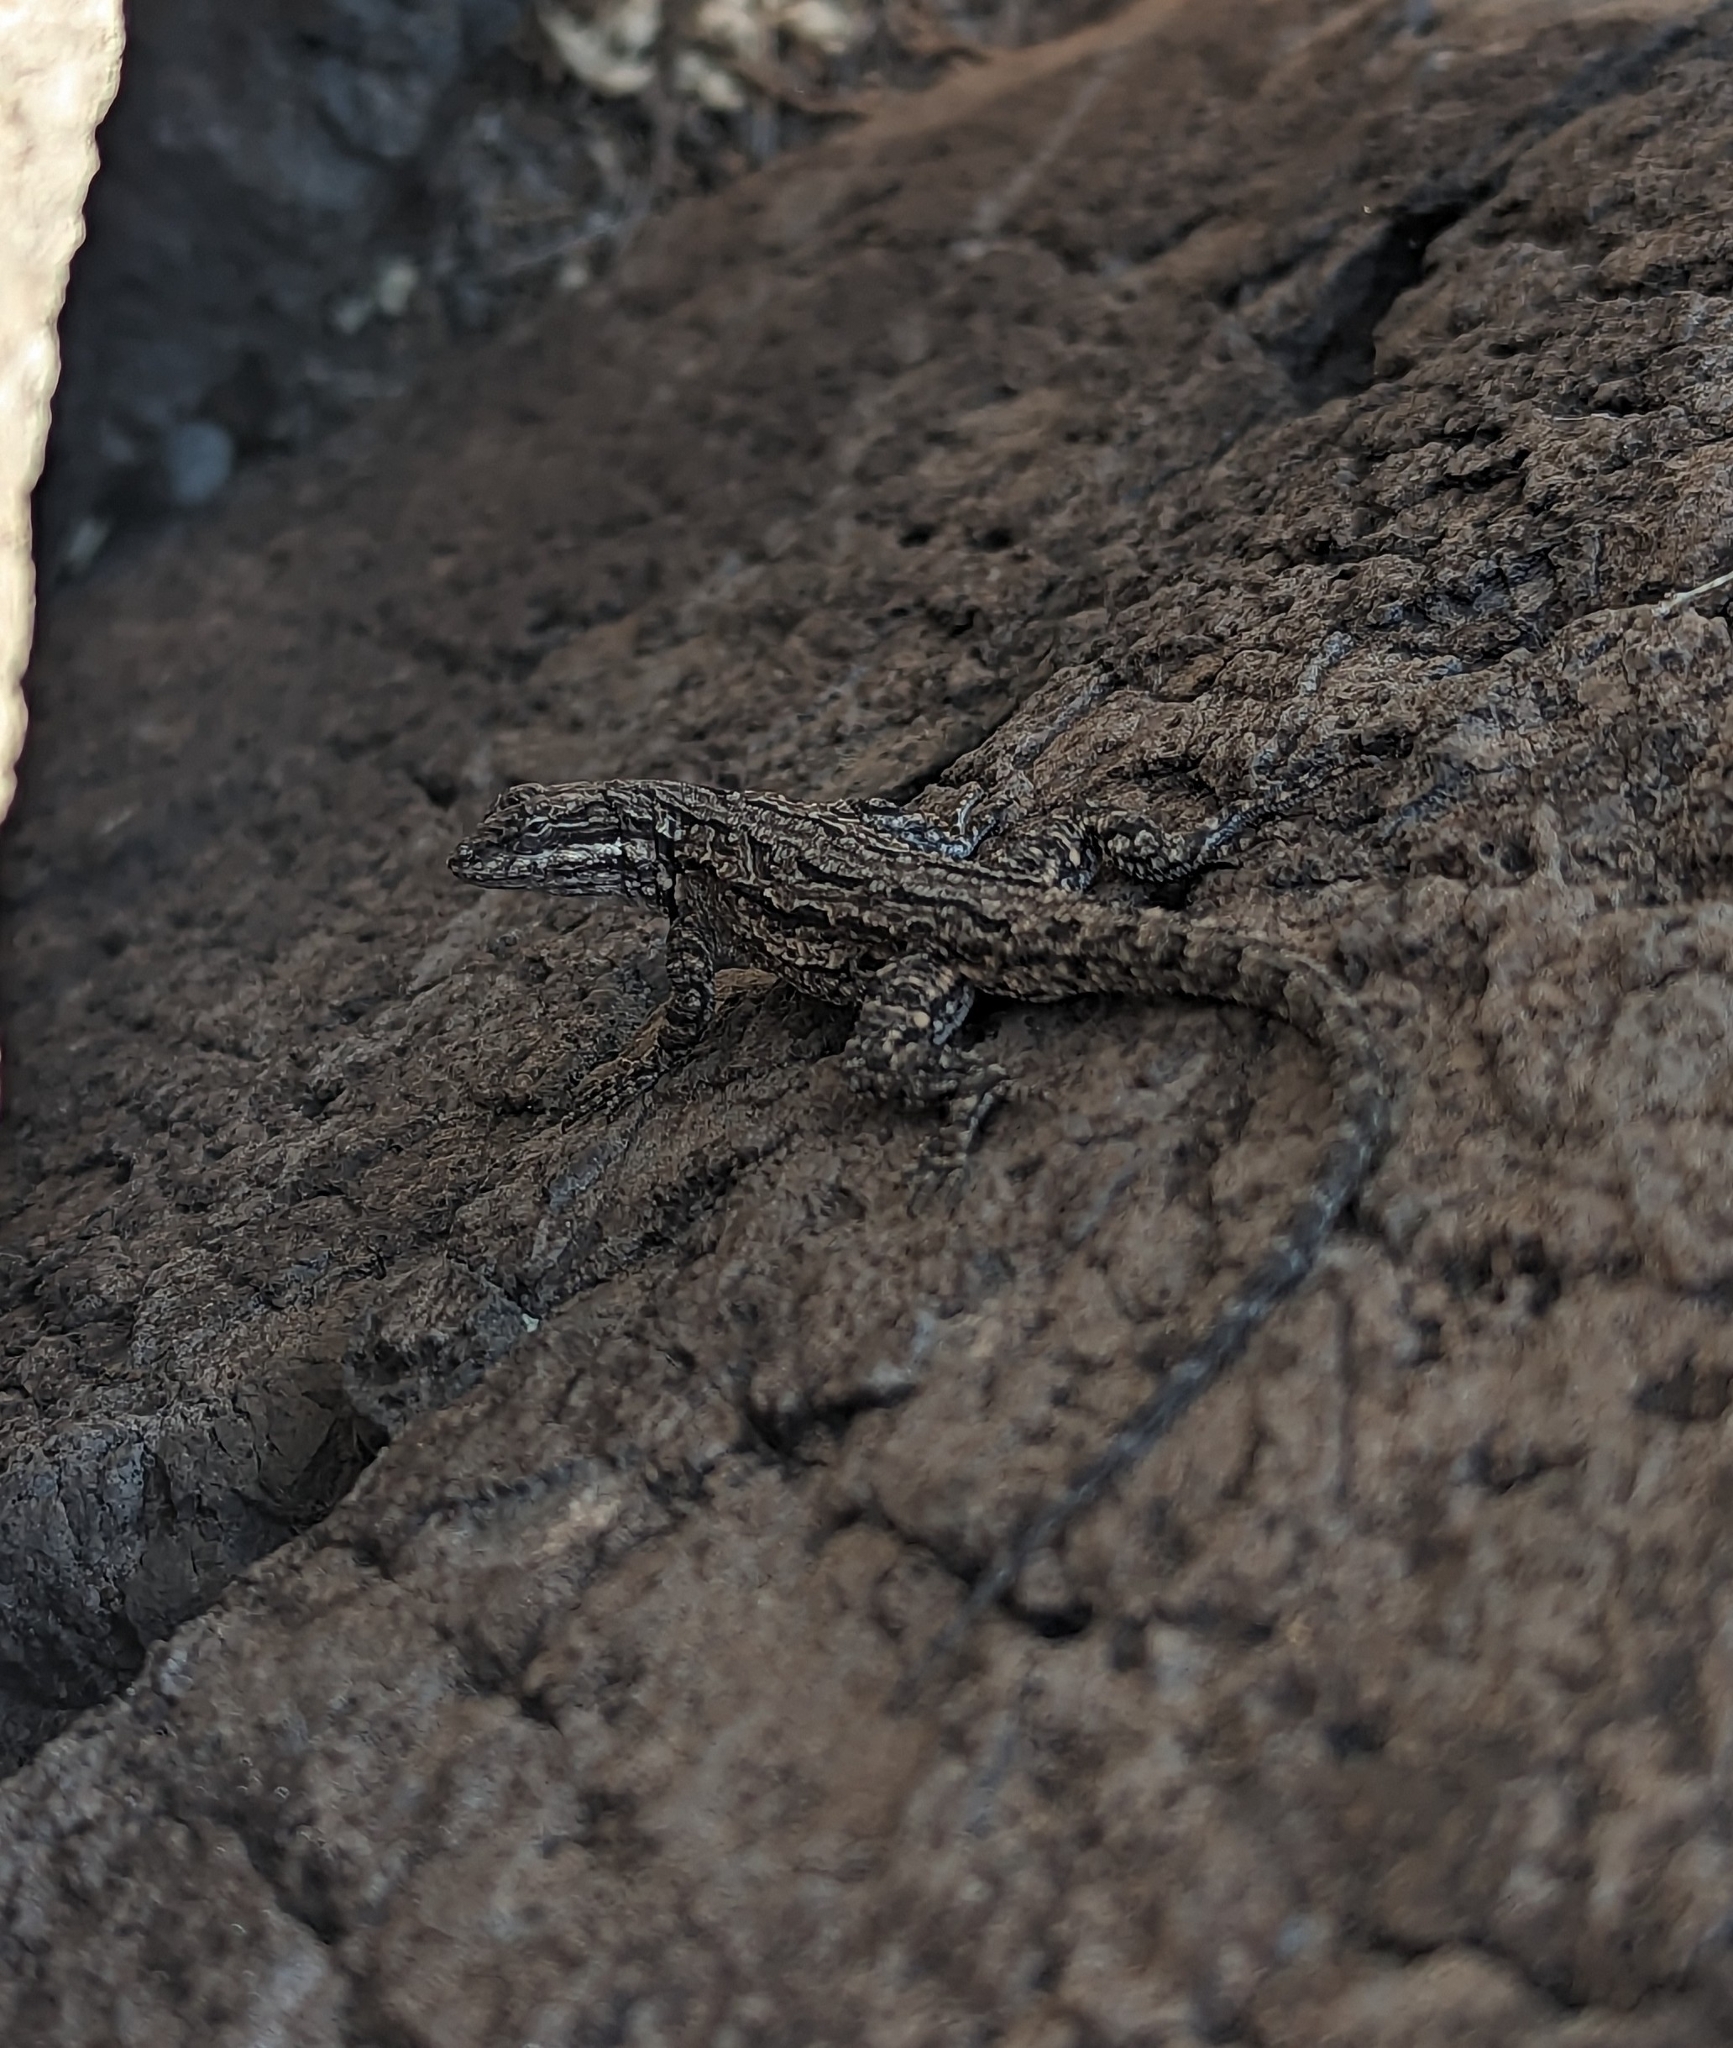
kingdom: Animalia
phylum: Chordata
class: Squamata
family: Phrynosomatidae
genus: Urosaurus
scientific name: Urosaurus ornatus
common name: Ornate tree lizard
